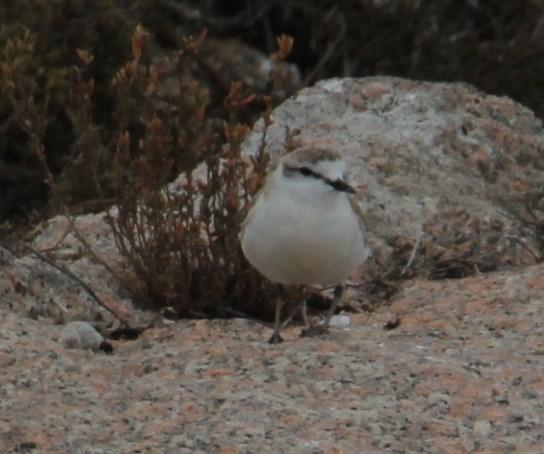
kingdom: Animalia
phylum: Chordata
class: Aves
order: Charadriiformes
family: Charadriidae
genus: Anarhynchus
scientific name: Anarhynchus
